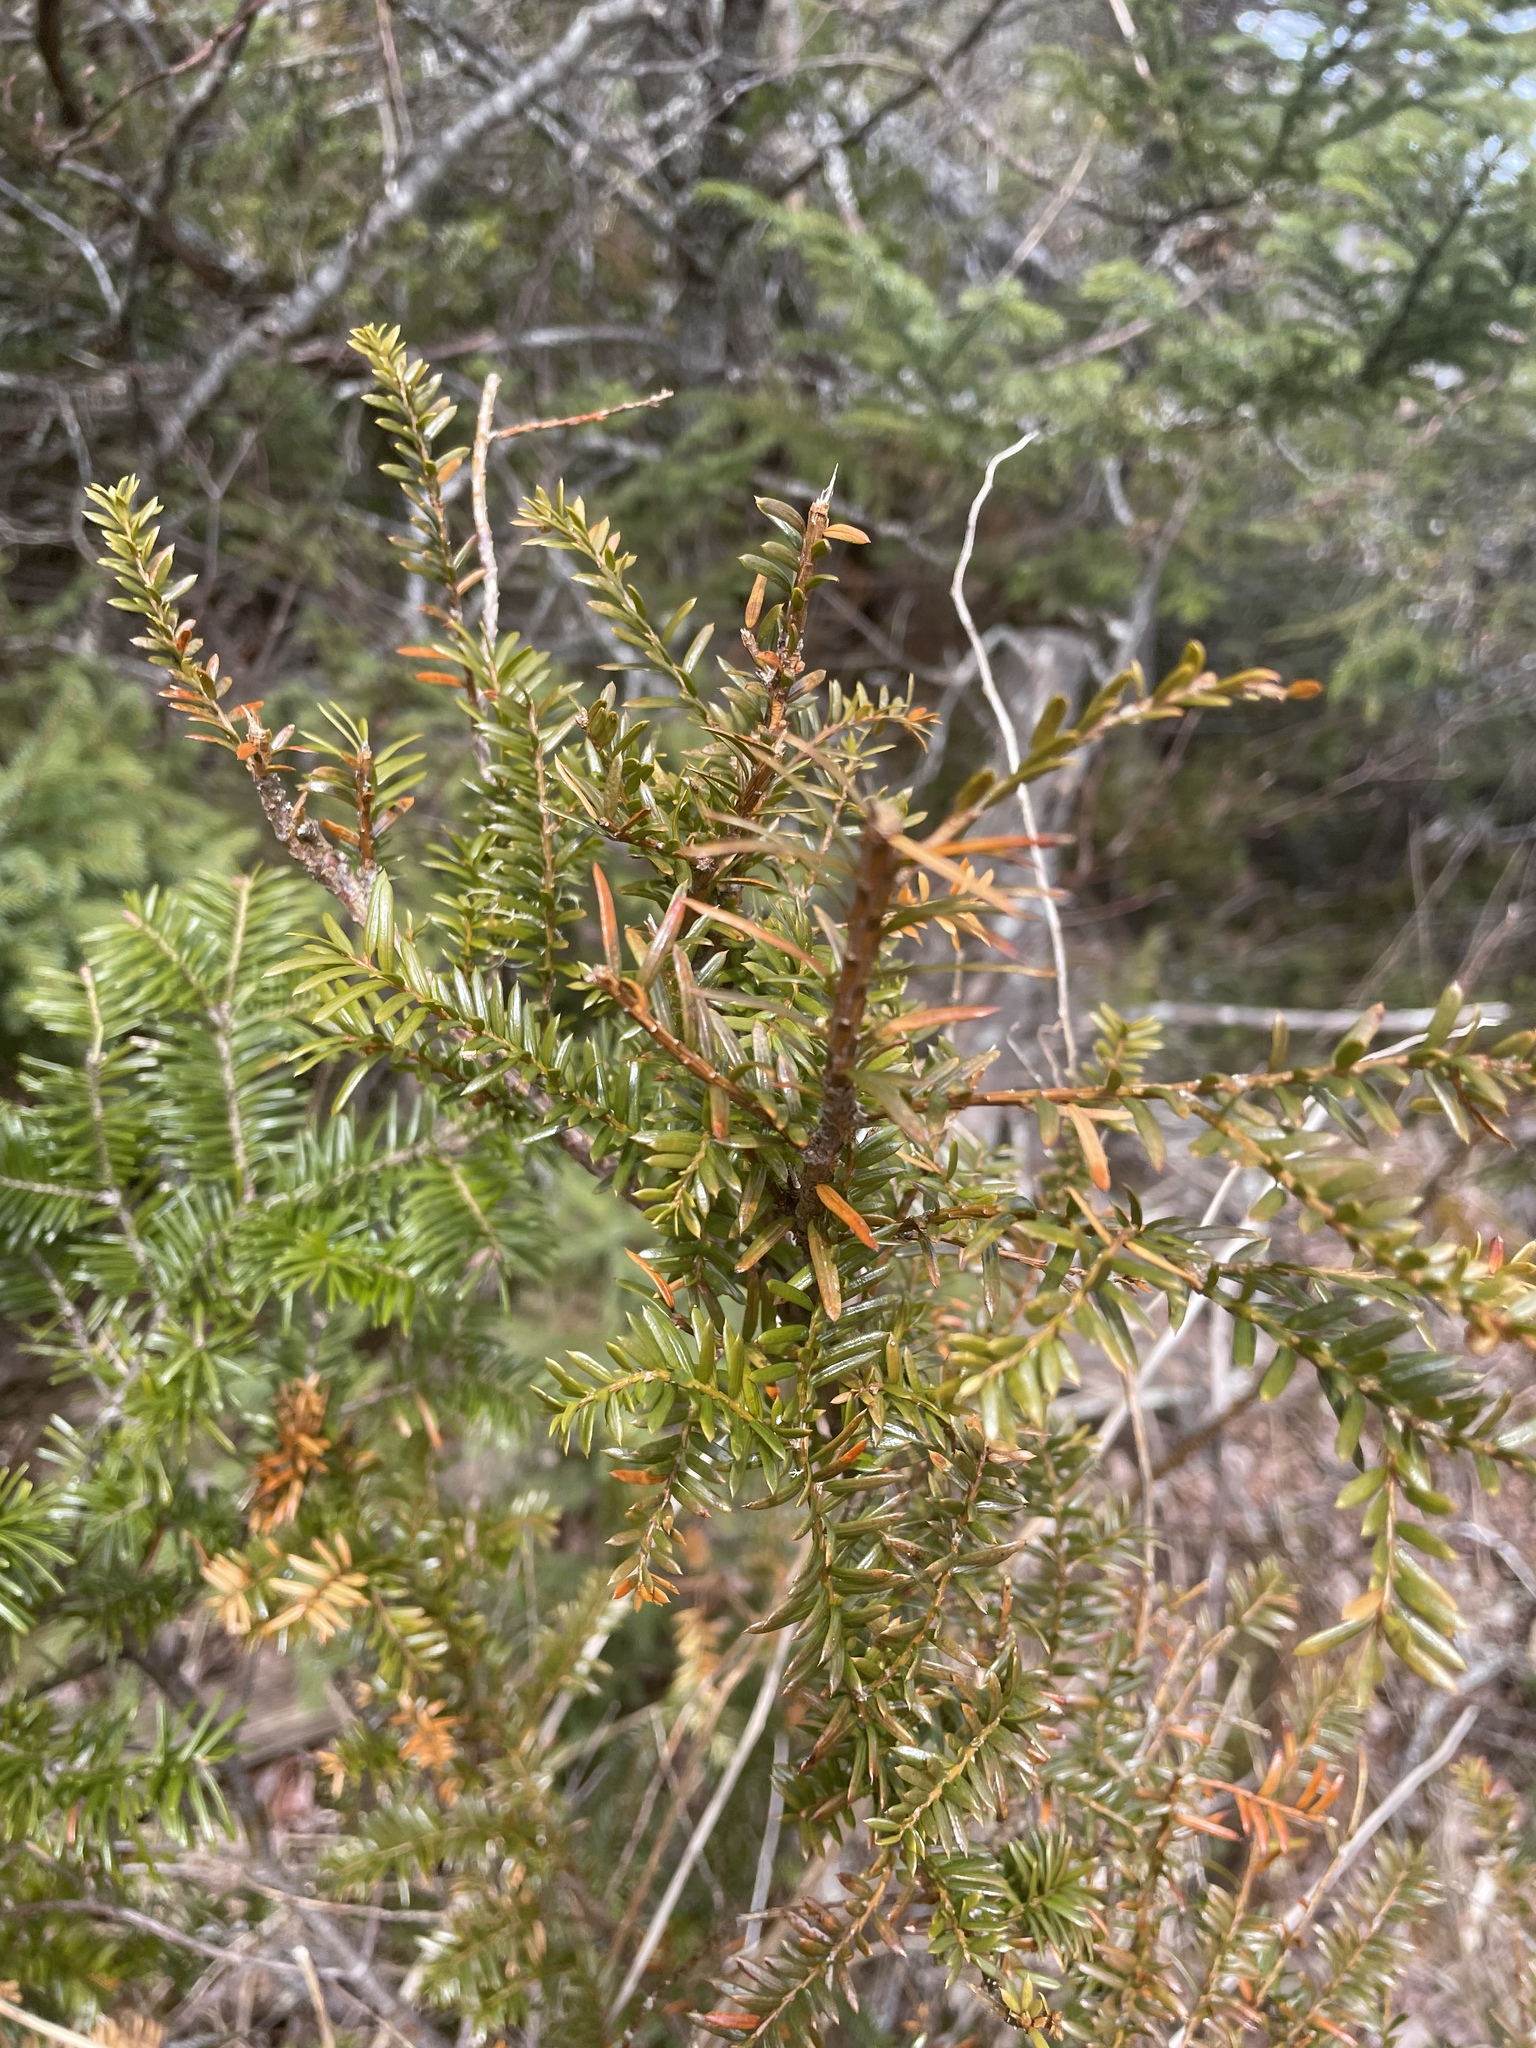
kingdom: Plantae
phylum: Tracheophyta
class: Pinopsida
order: Pinales
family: Taxaceae
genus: Taxus
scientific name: Taxus canadensis
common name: American yew
